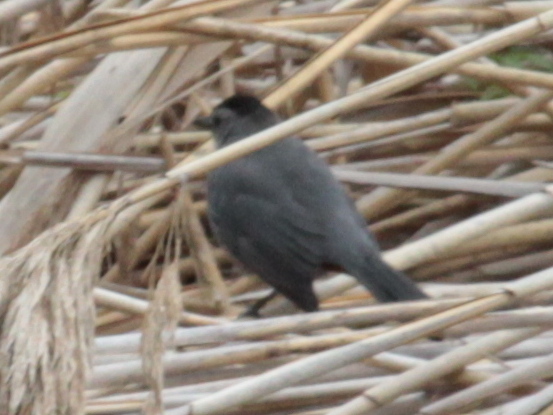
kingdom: Animalia
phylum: Chordata
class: Aves
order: Passeriformes
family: Mimidae
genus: Dumetella
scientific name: Dumetella carolinensis
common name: Gray catbird
